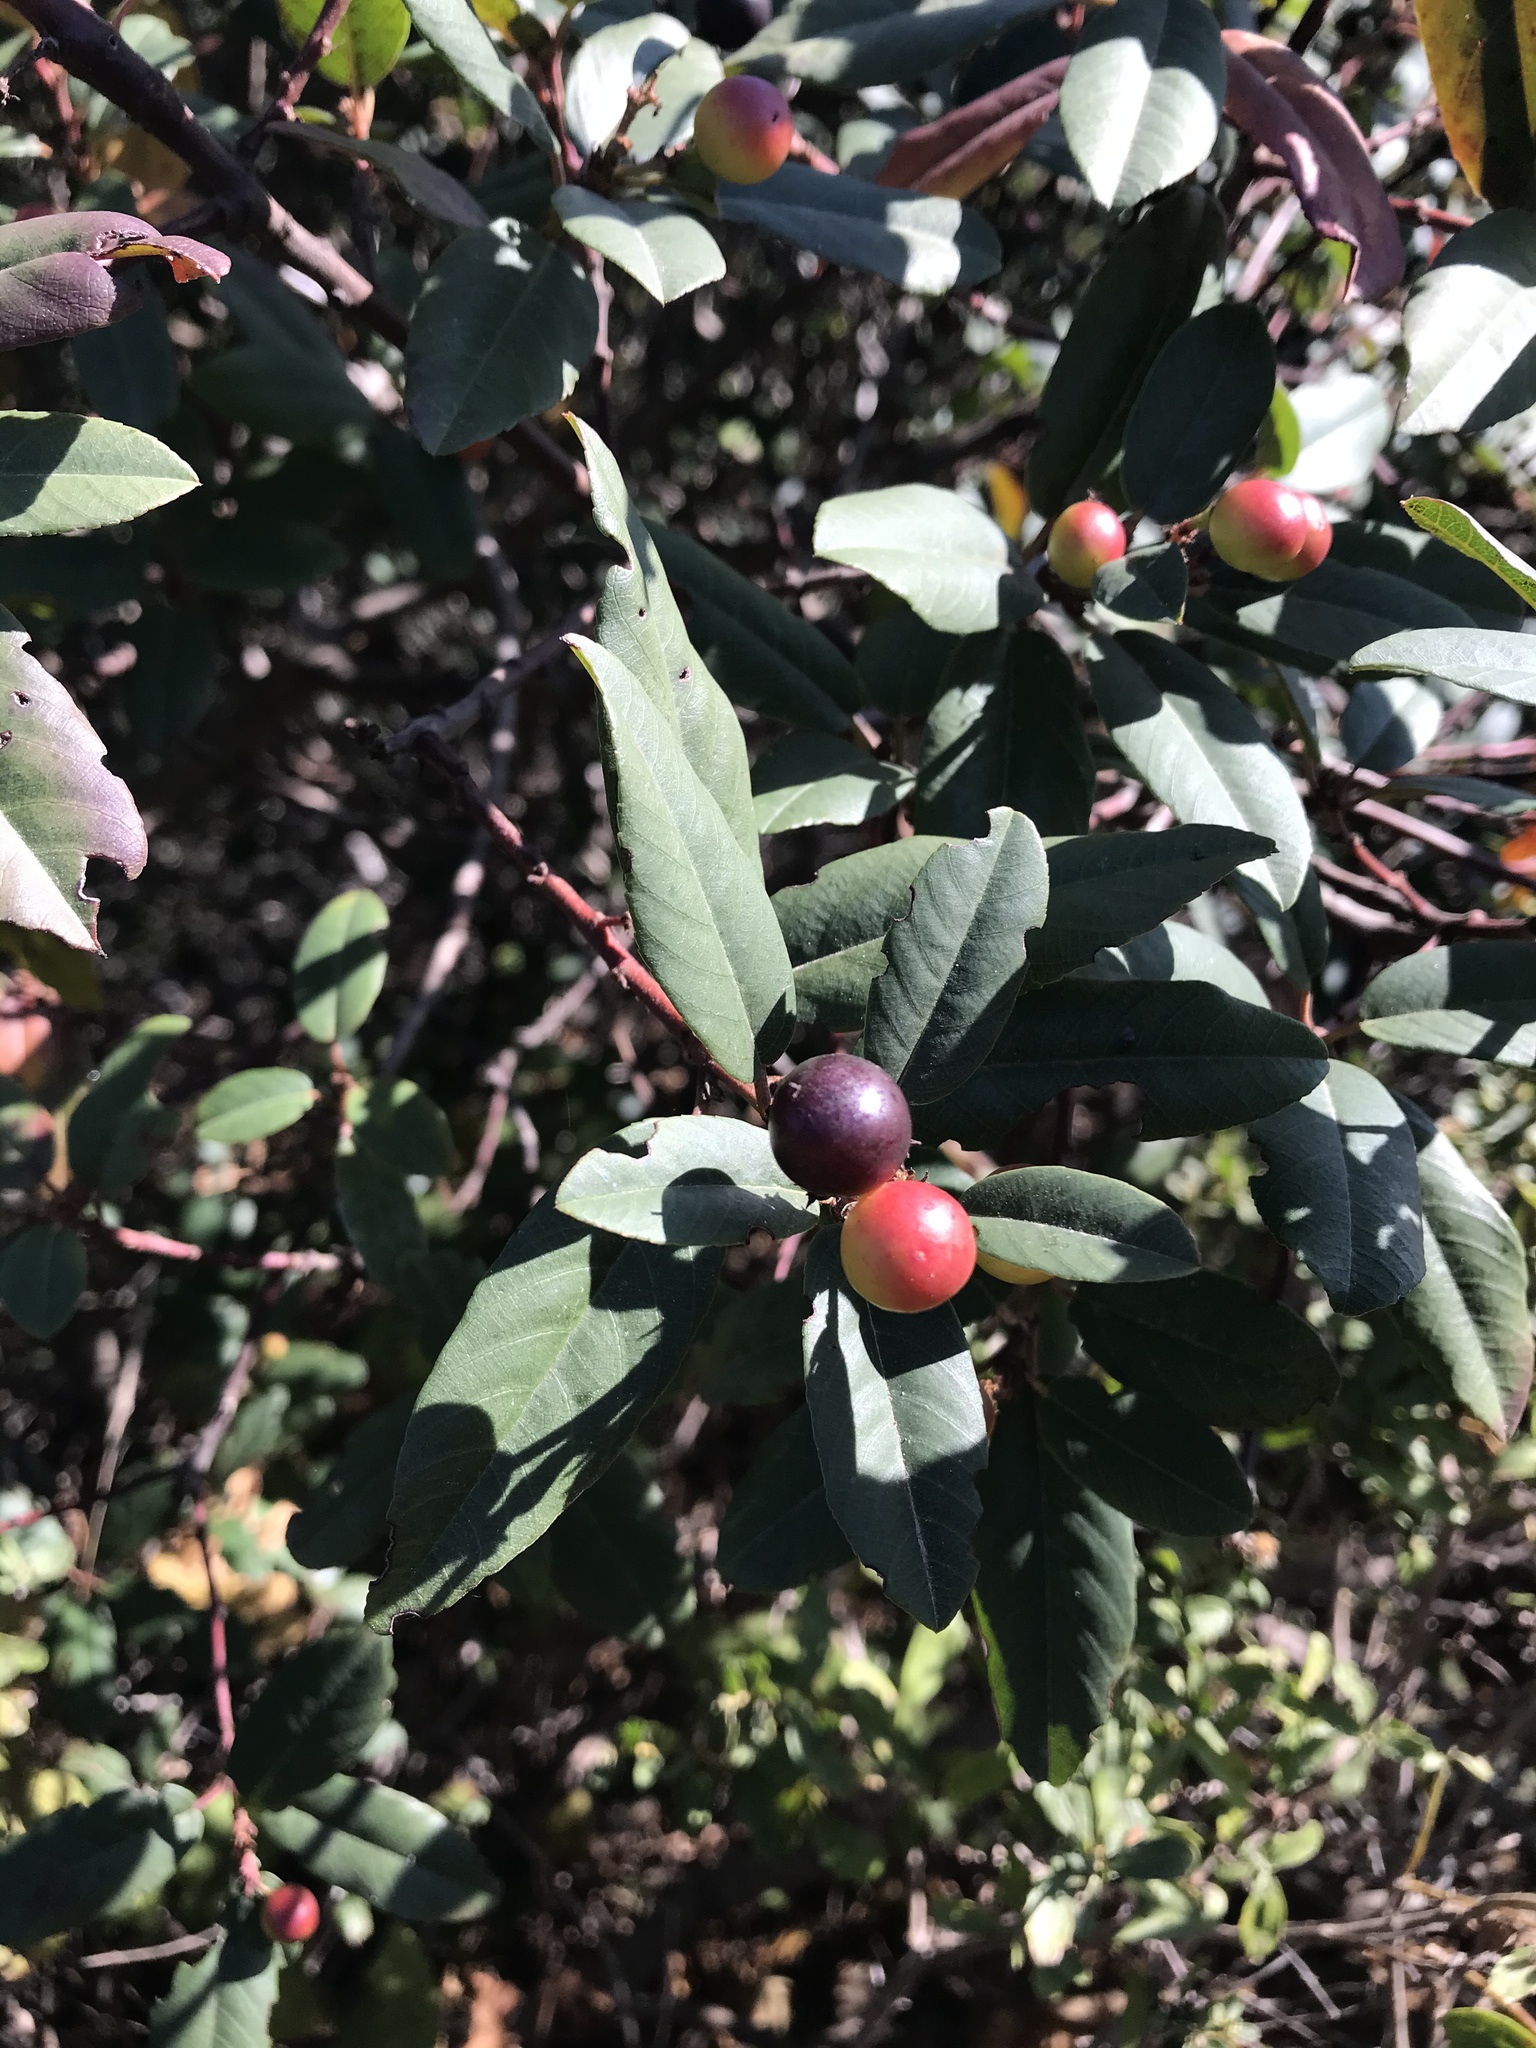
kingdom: Plantae
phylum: Tracheophyta
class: Magnoliopsida
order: Rosales
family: Rhamnaceae
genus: Frangula
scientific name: Frangula californica
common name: California buckthorn
